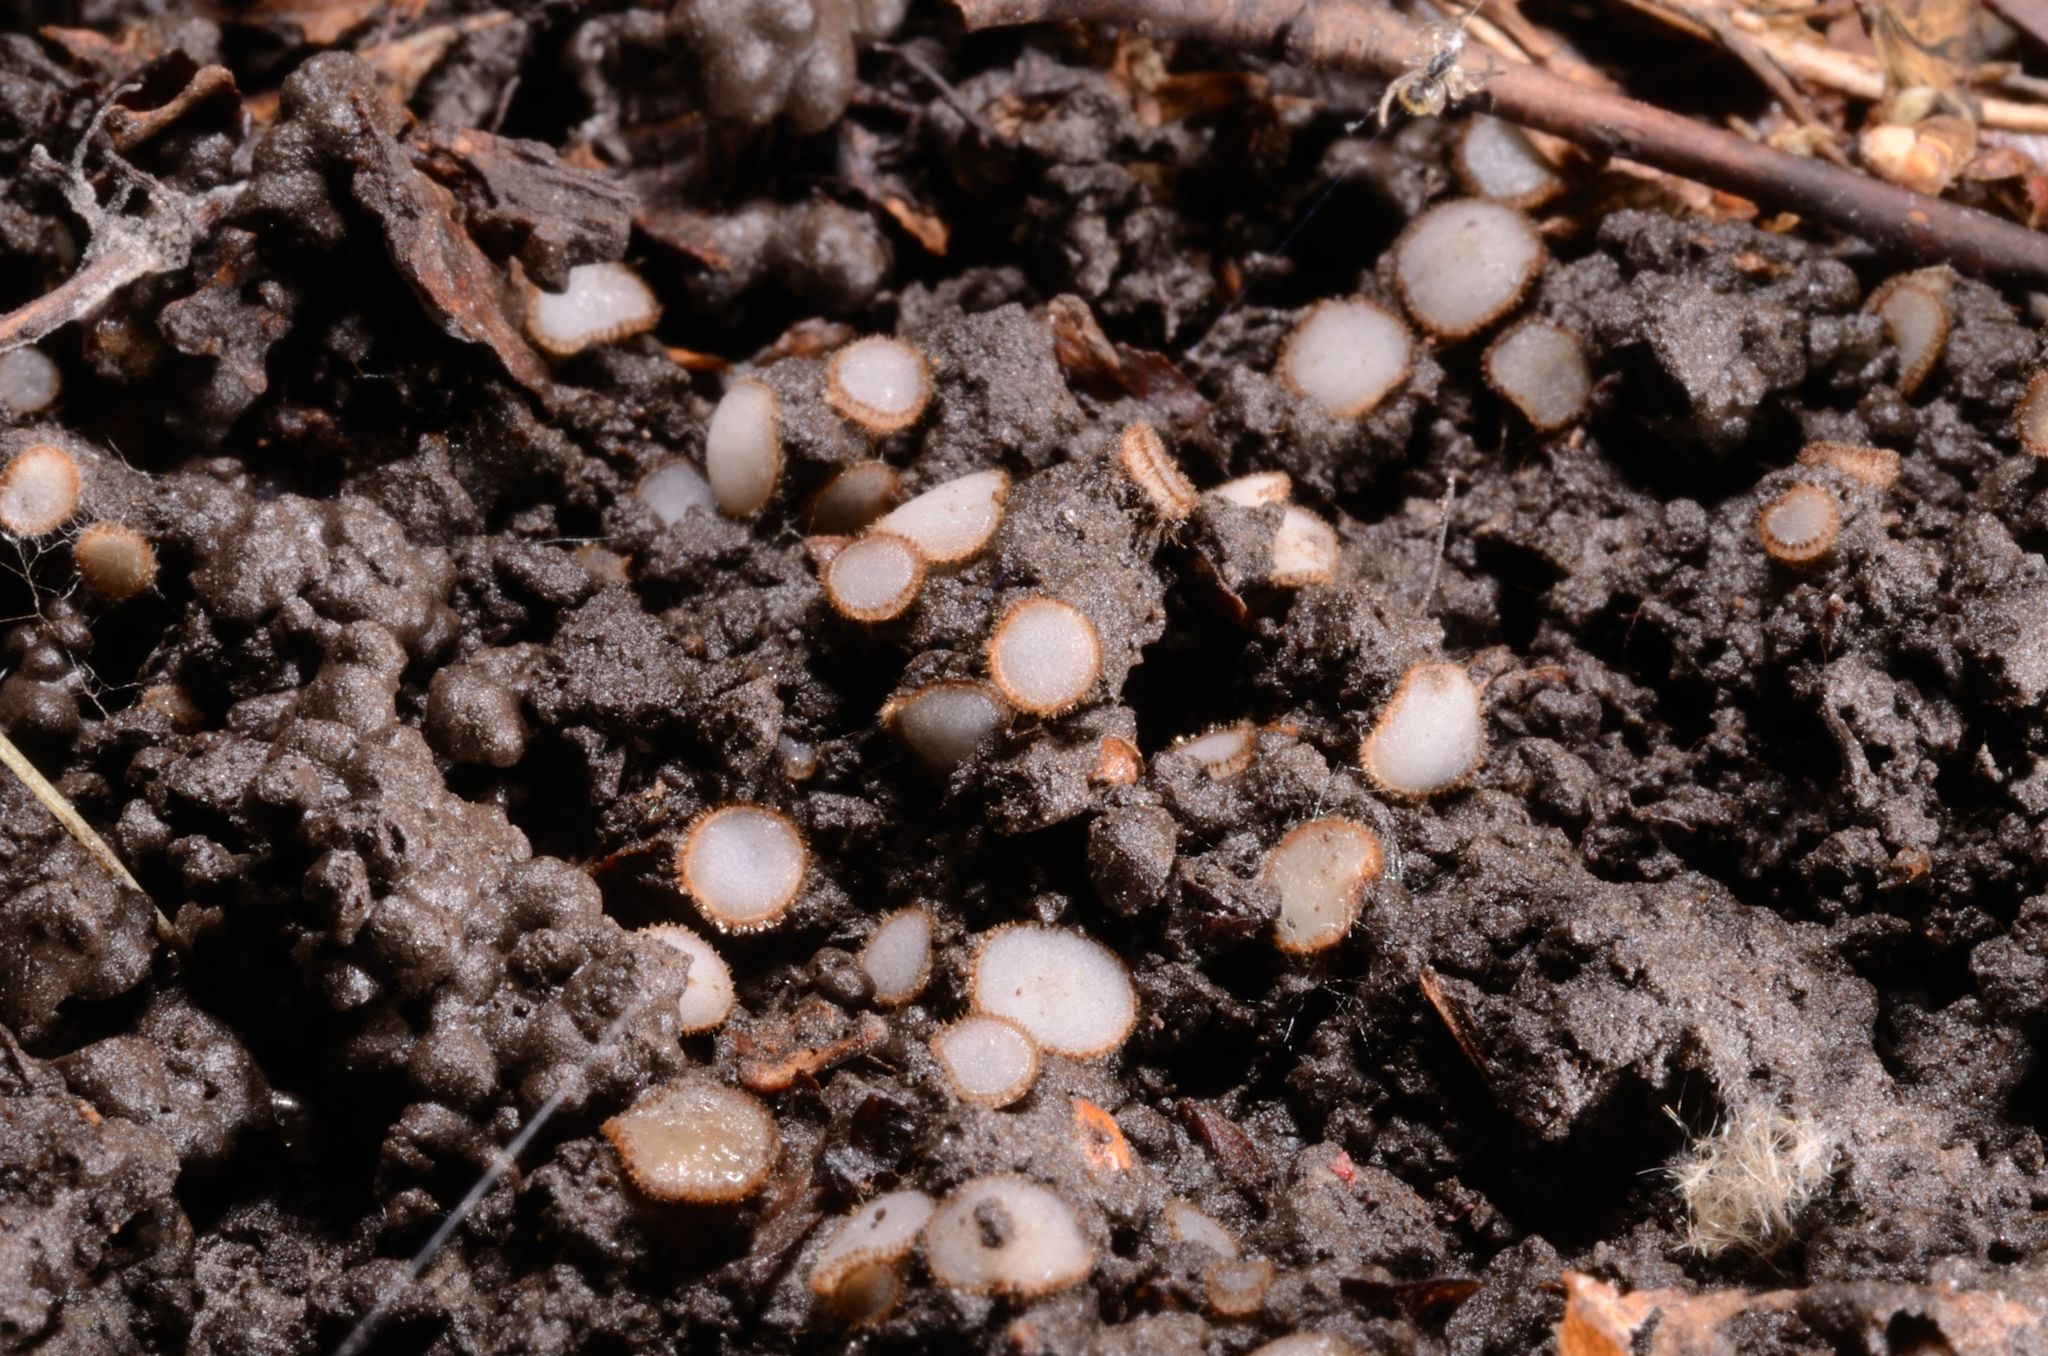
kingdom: Fungi
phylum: Ascomycota
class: Pezizomycetes
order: Pezizales
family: Pyronemataceae
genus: Trichophaea
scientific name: Trichophaea woolhopeia
